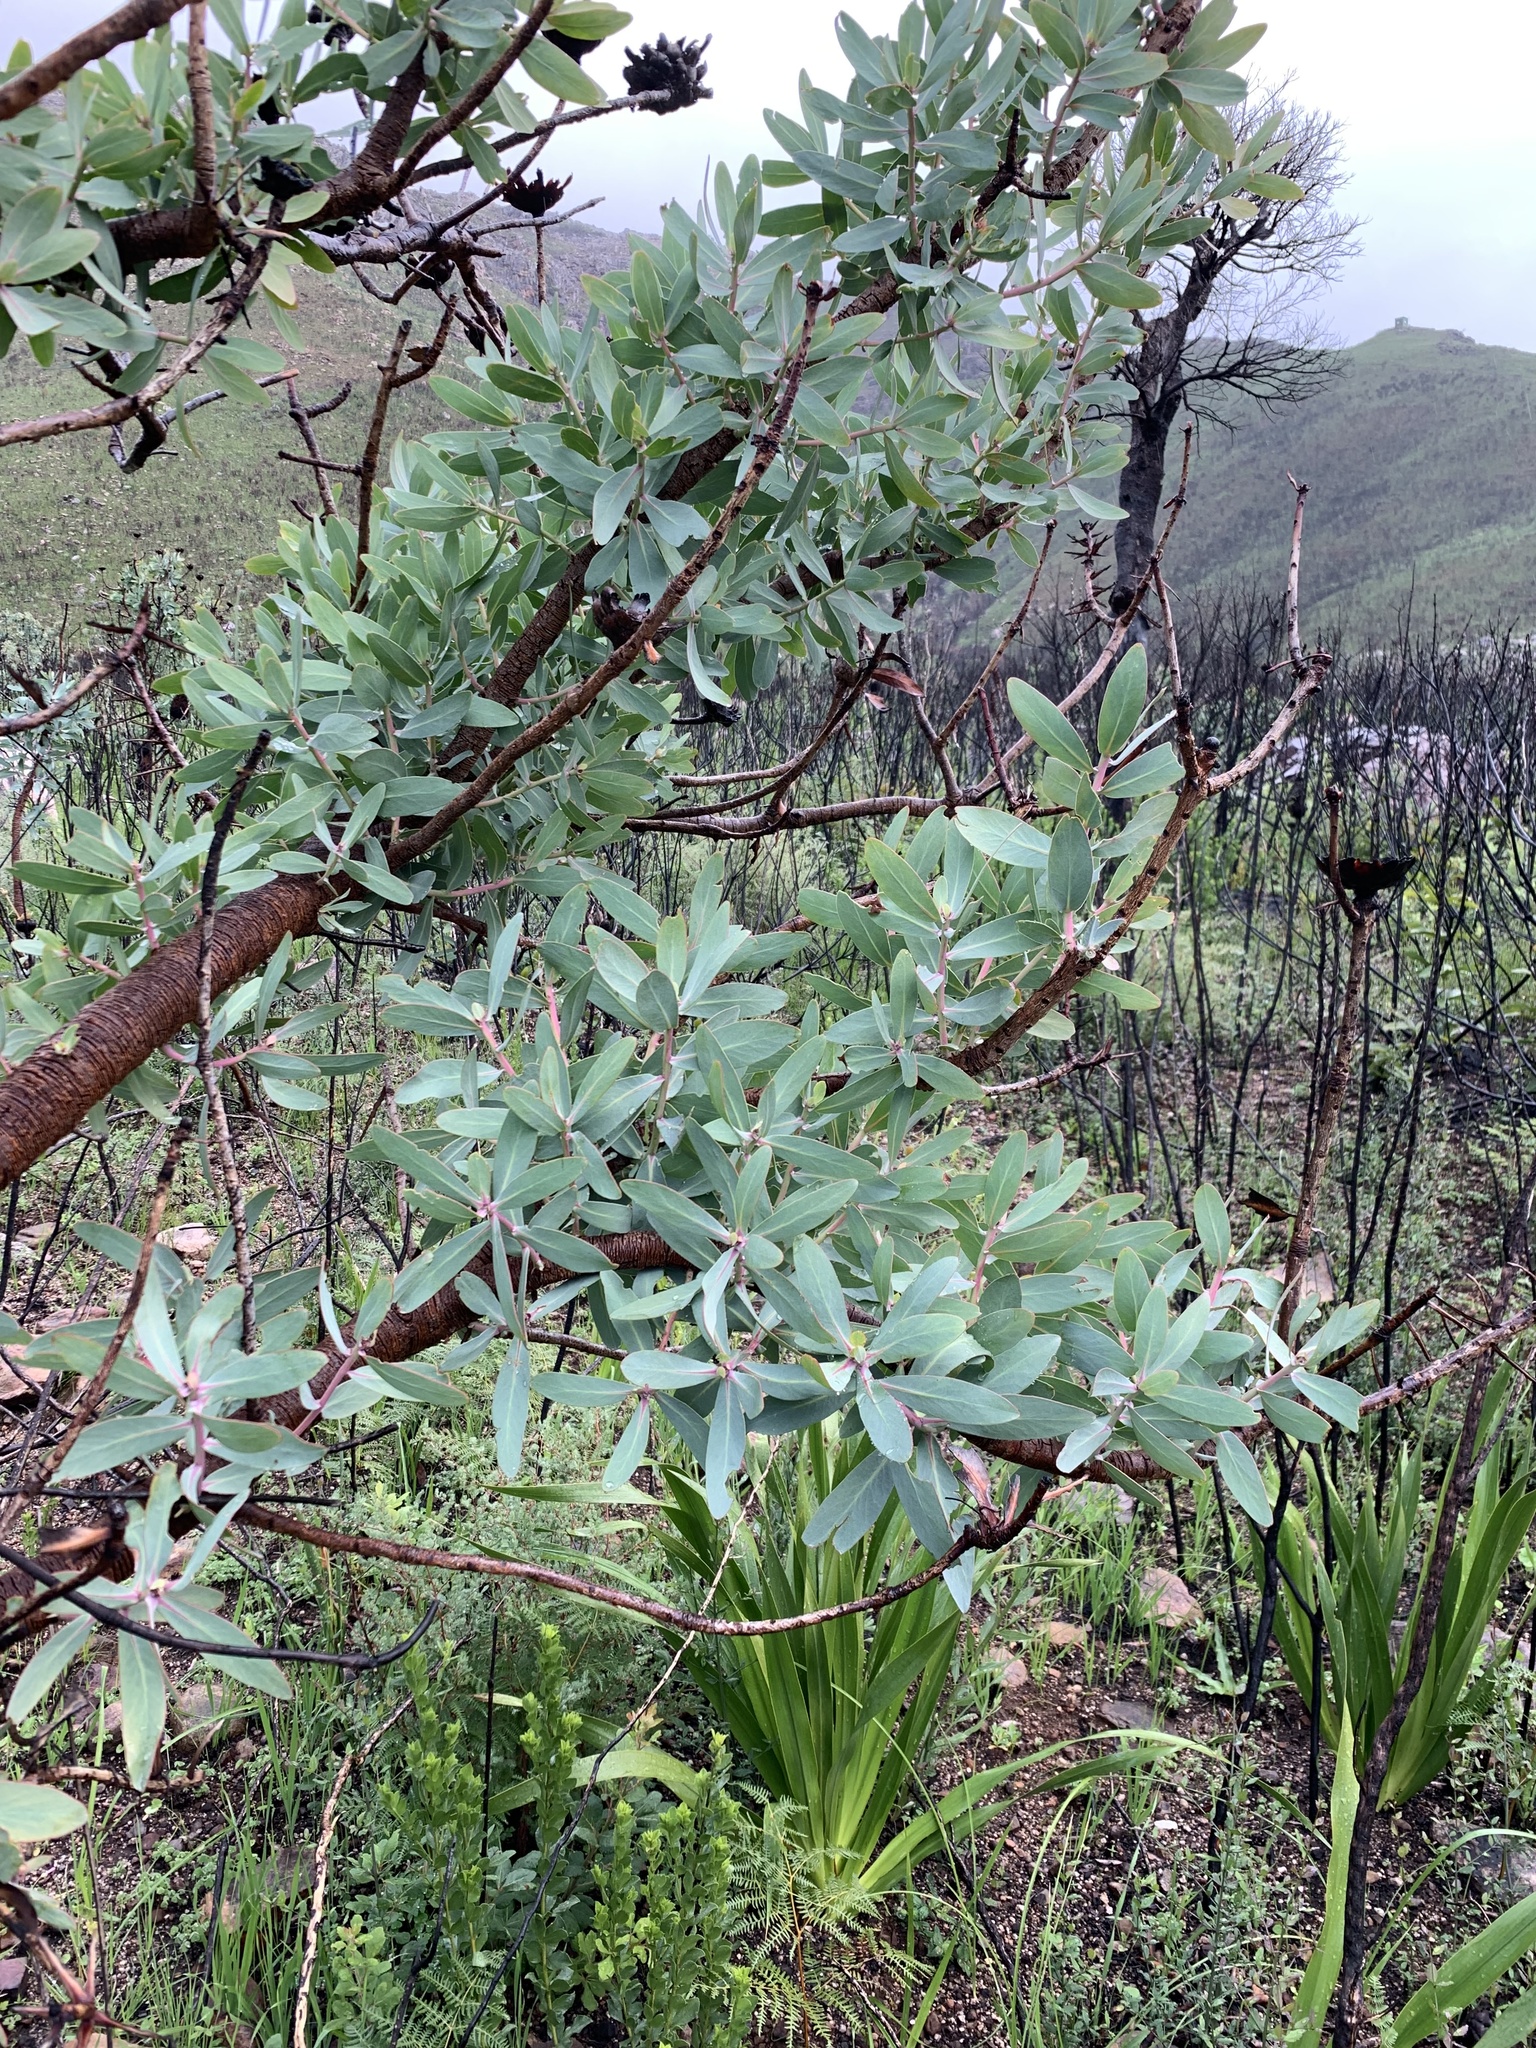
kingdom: Plantae
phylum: Tracheophyta
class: Magnoliopsida
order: Proteales
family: Proteaceae
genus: Protea
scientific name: Protea nitida
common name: Tree protea
